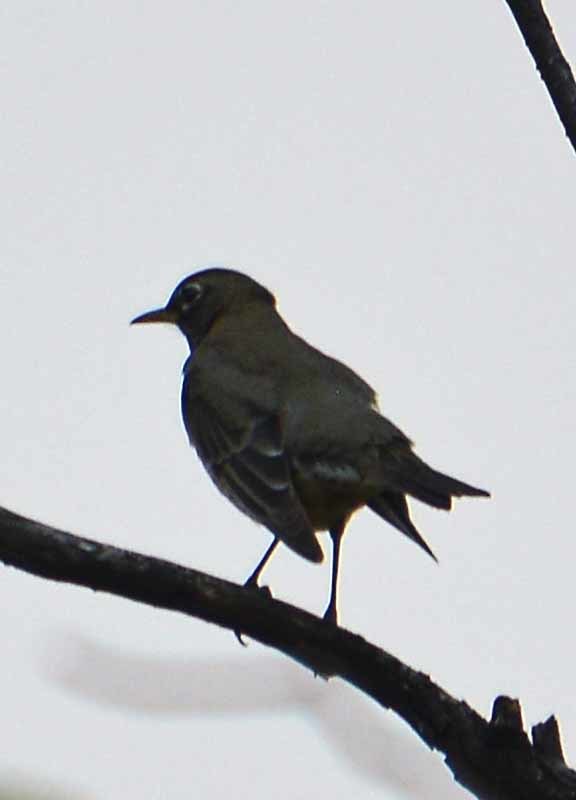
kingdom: Animalia
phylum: Chordata
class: Aves
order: Passeriformes
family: Turdidae
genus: Turdus
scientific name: Turdus migratorius
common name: American robin
